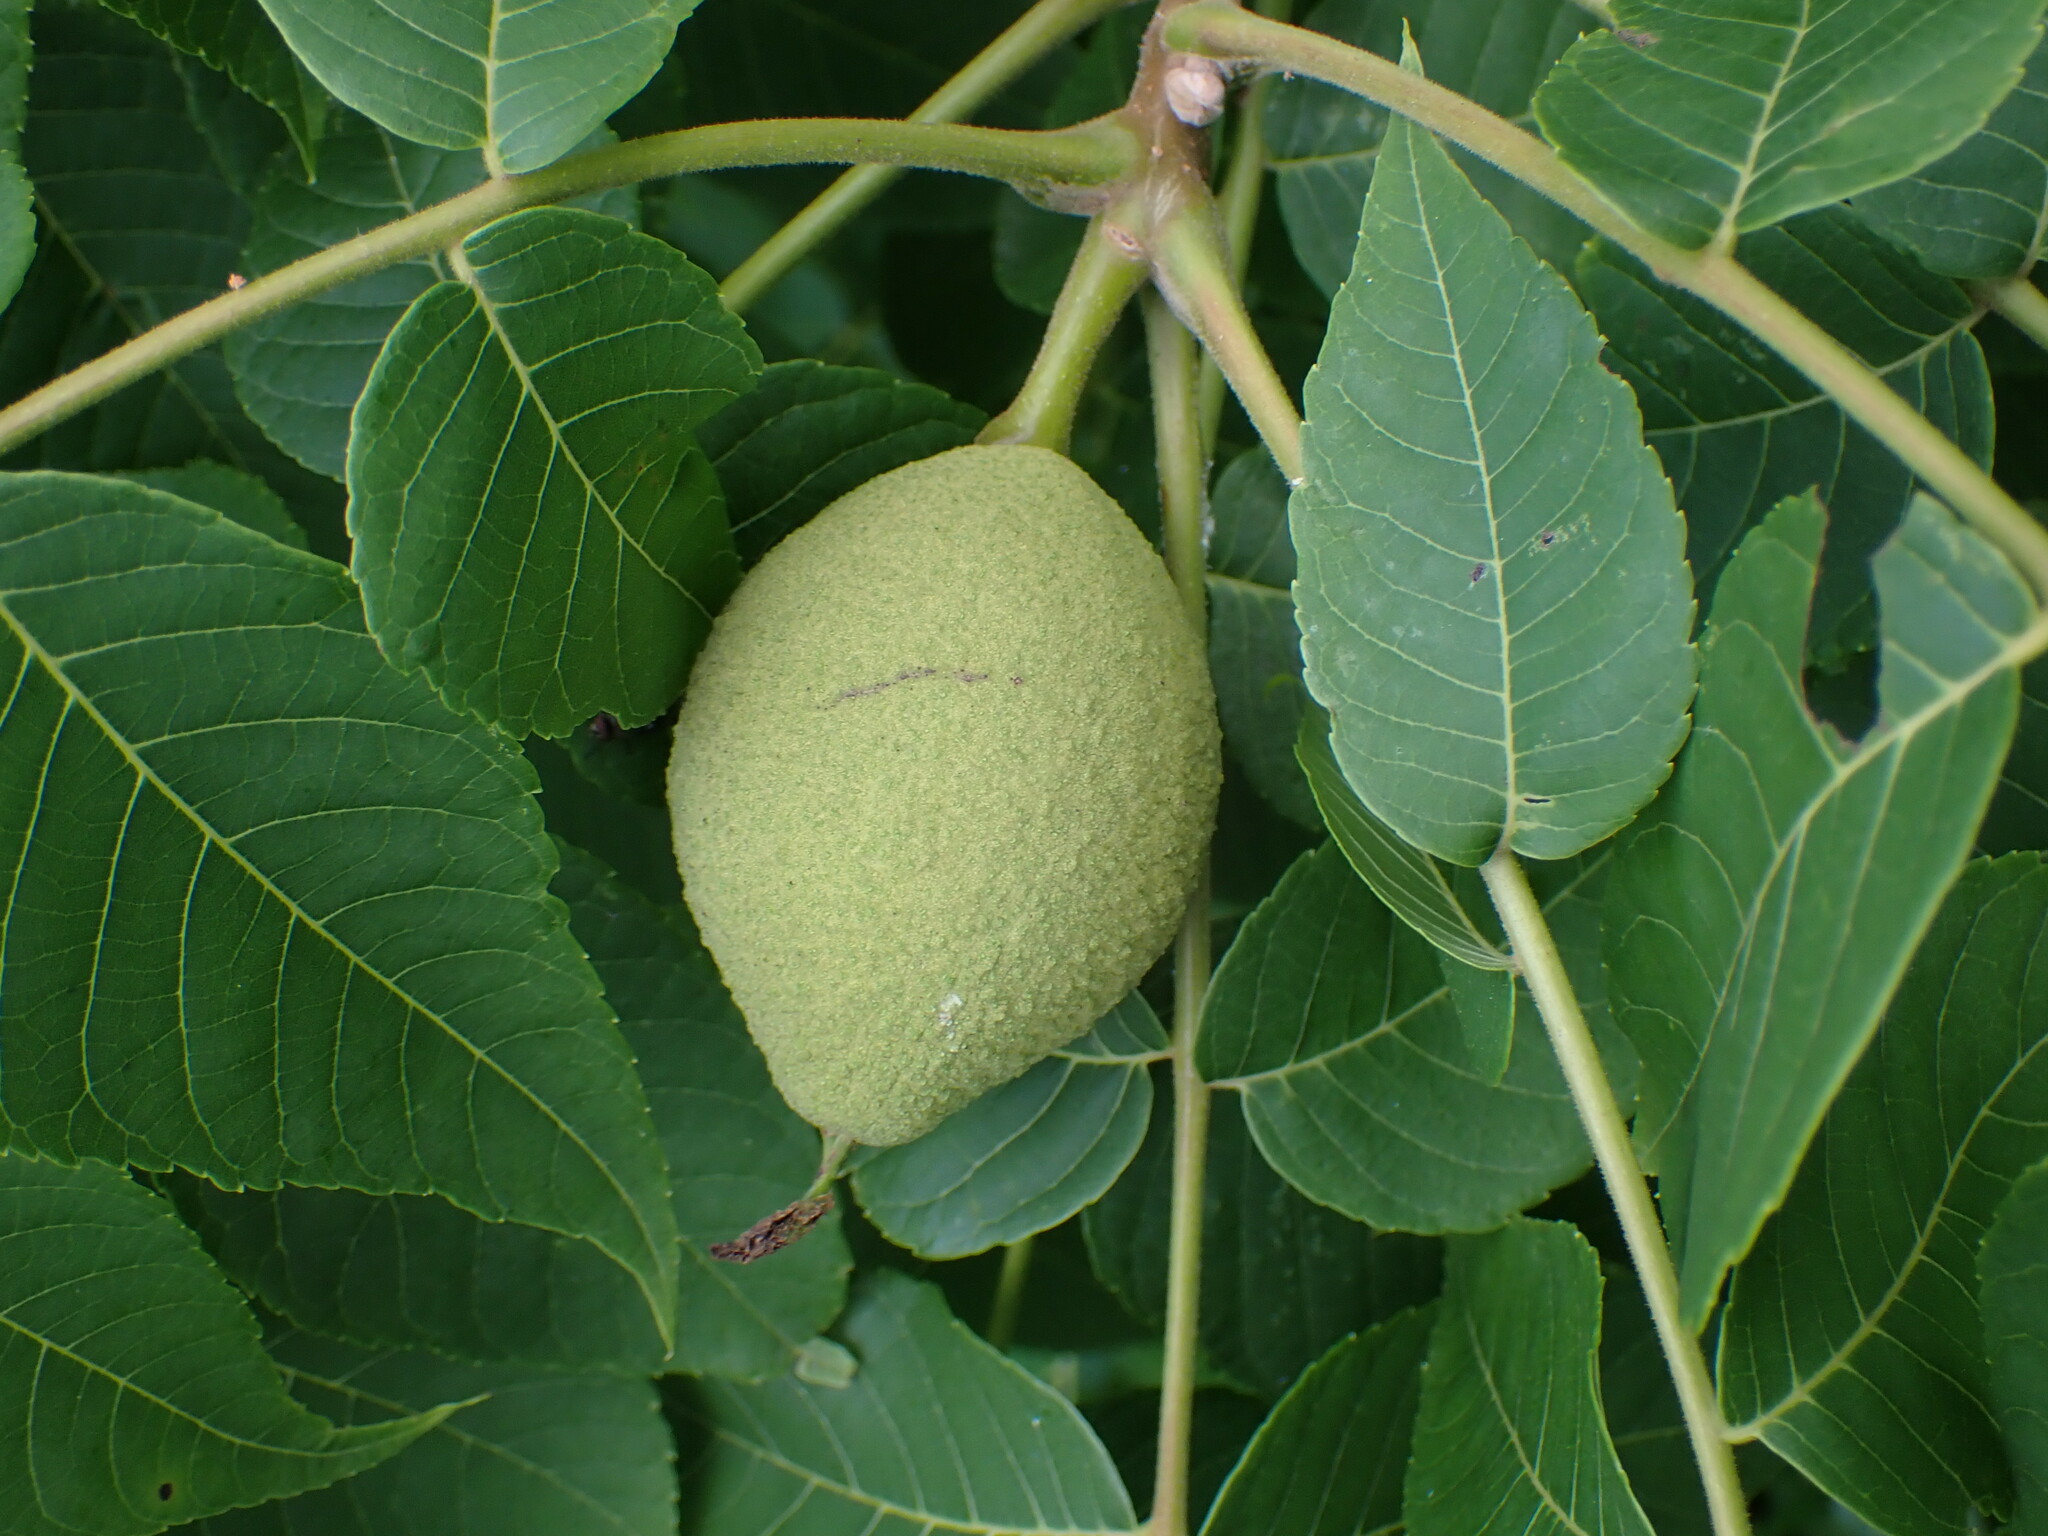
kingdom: Plantae
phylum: Tracheophyta
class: Magnoliopsida
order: Fagales
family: Juglandaceae
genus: Juglans
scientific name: Juglans nigra
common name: Black walnut
